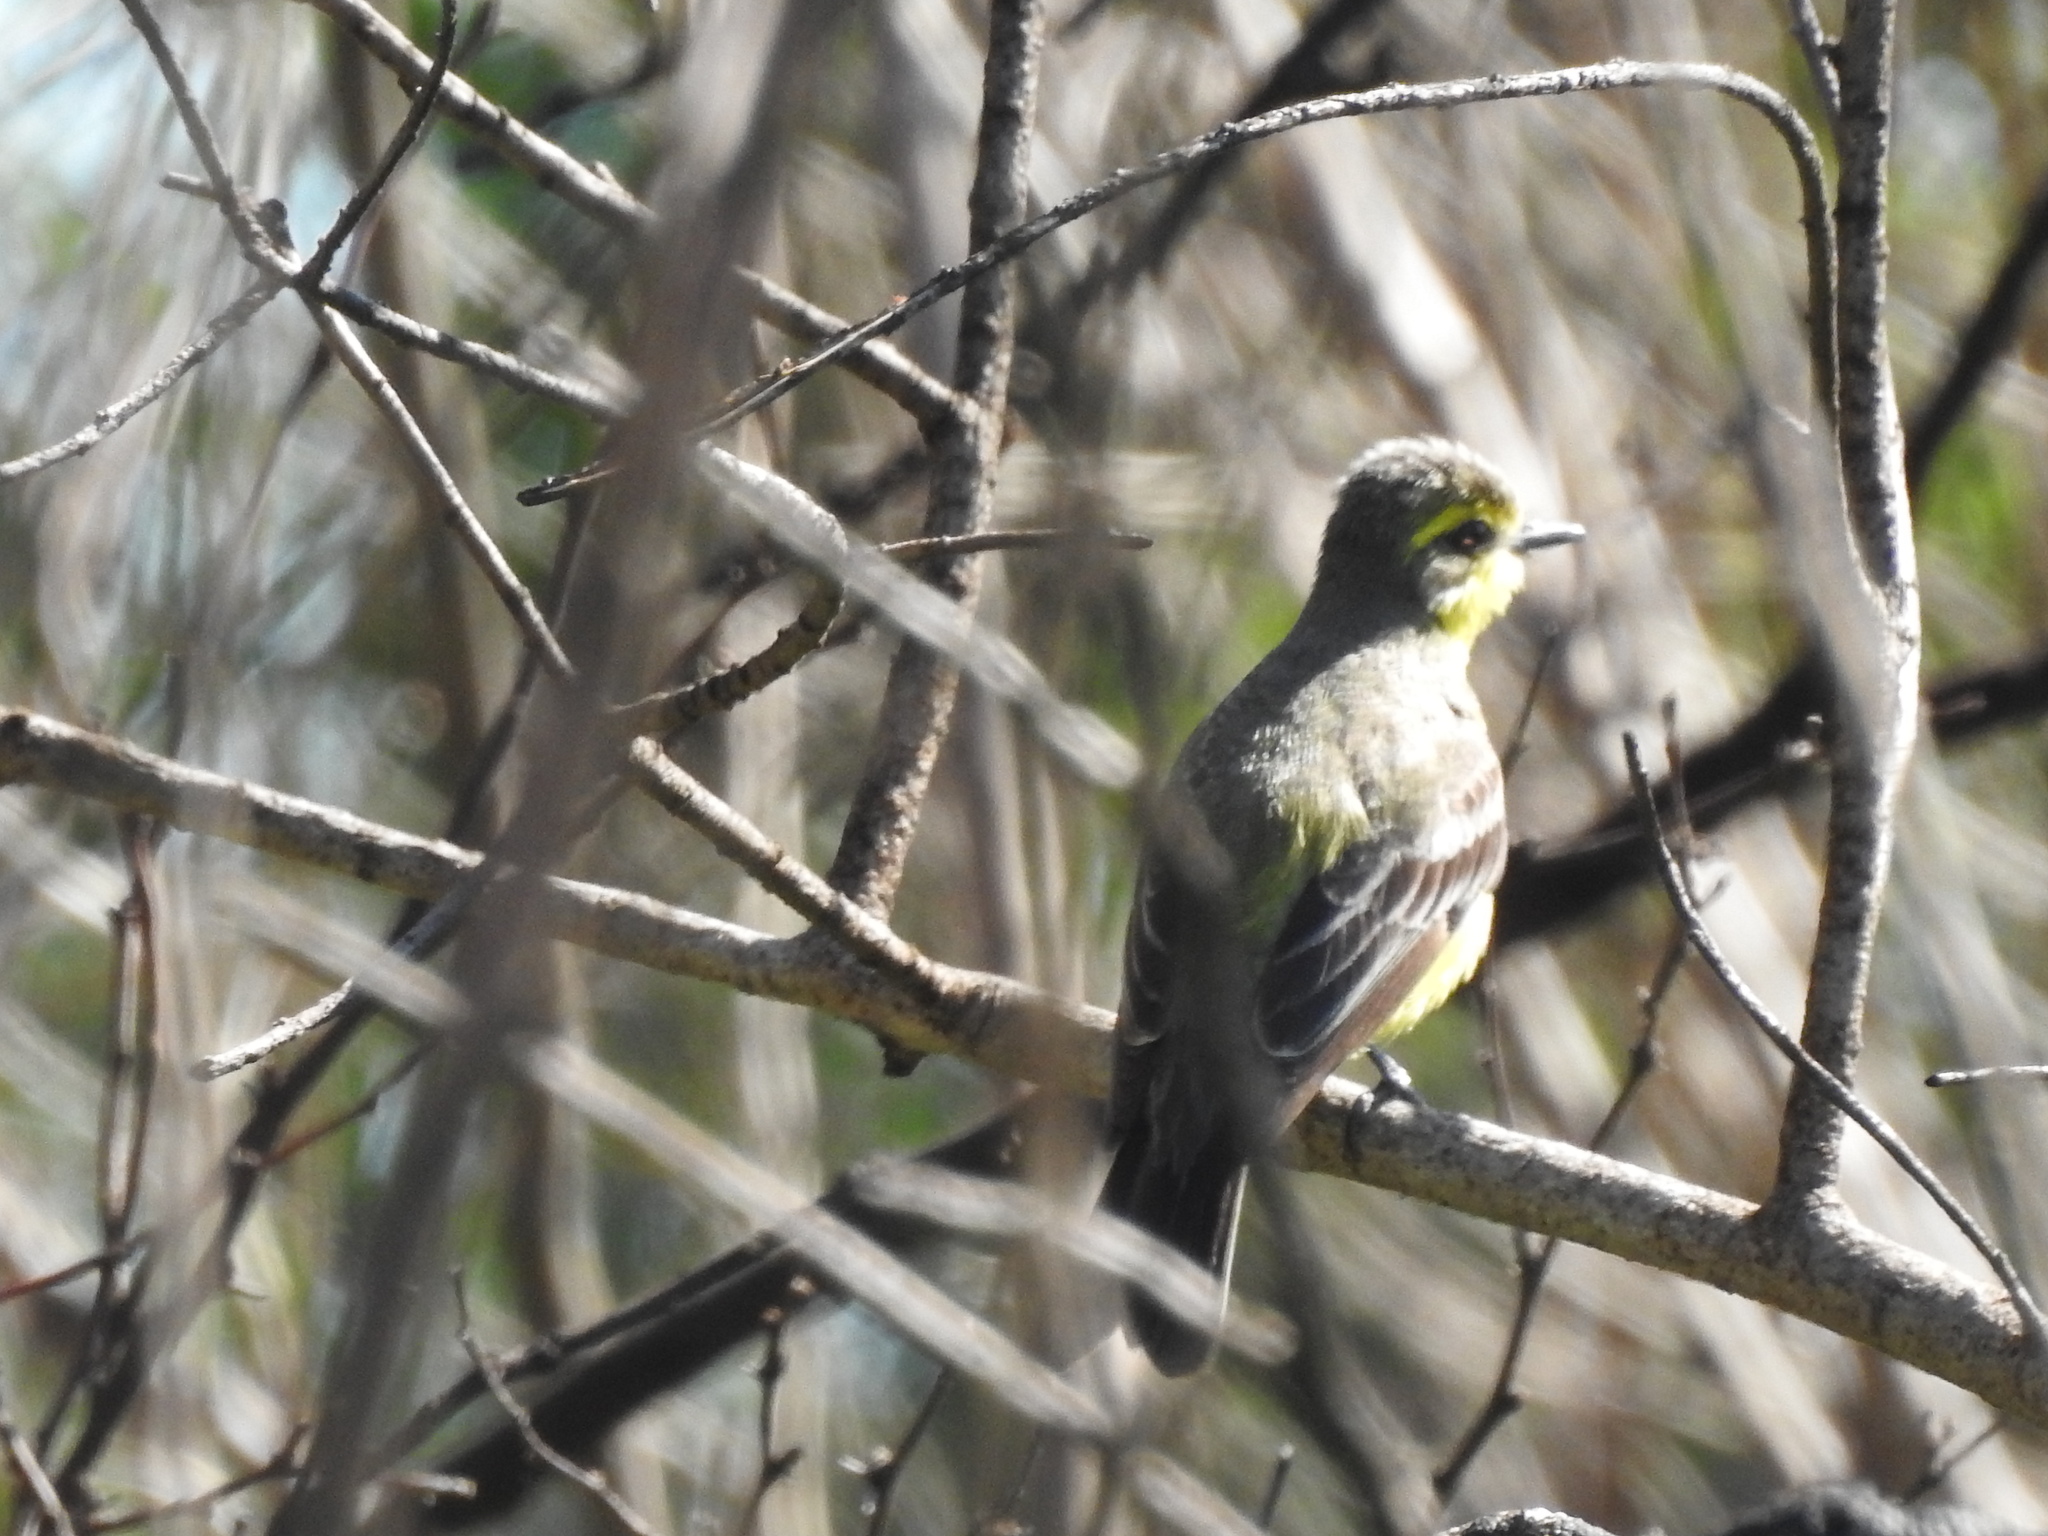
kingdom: Animalia
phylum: Chordata
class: Aves
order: Passeriformes
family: Tyrannidae
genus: Satrapa
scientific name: Satrapa icterophrys
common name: Yellow-browed tyrant
